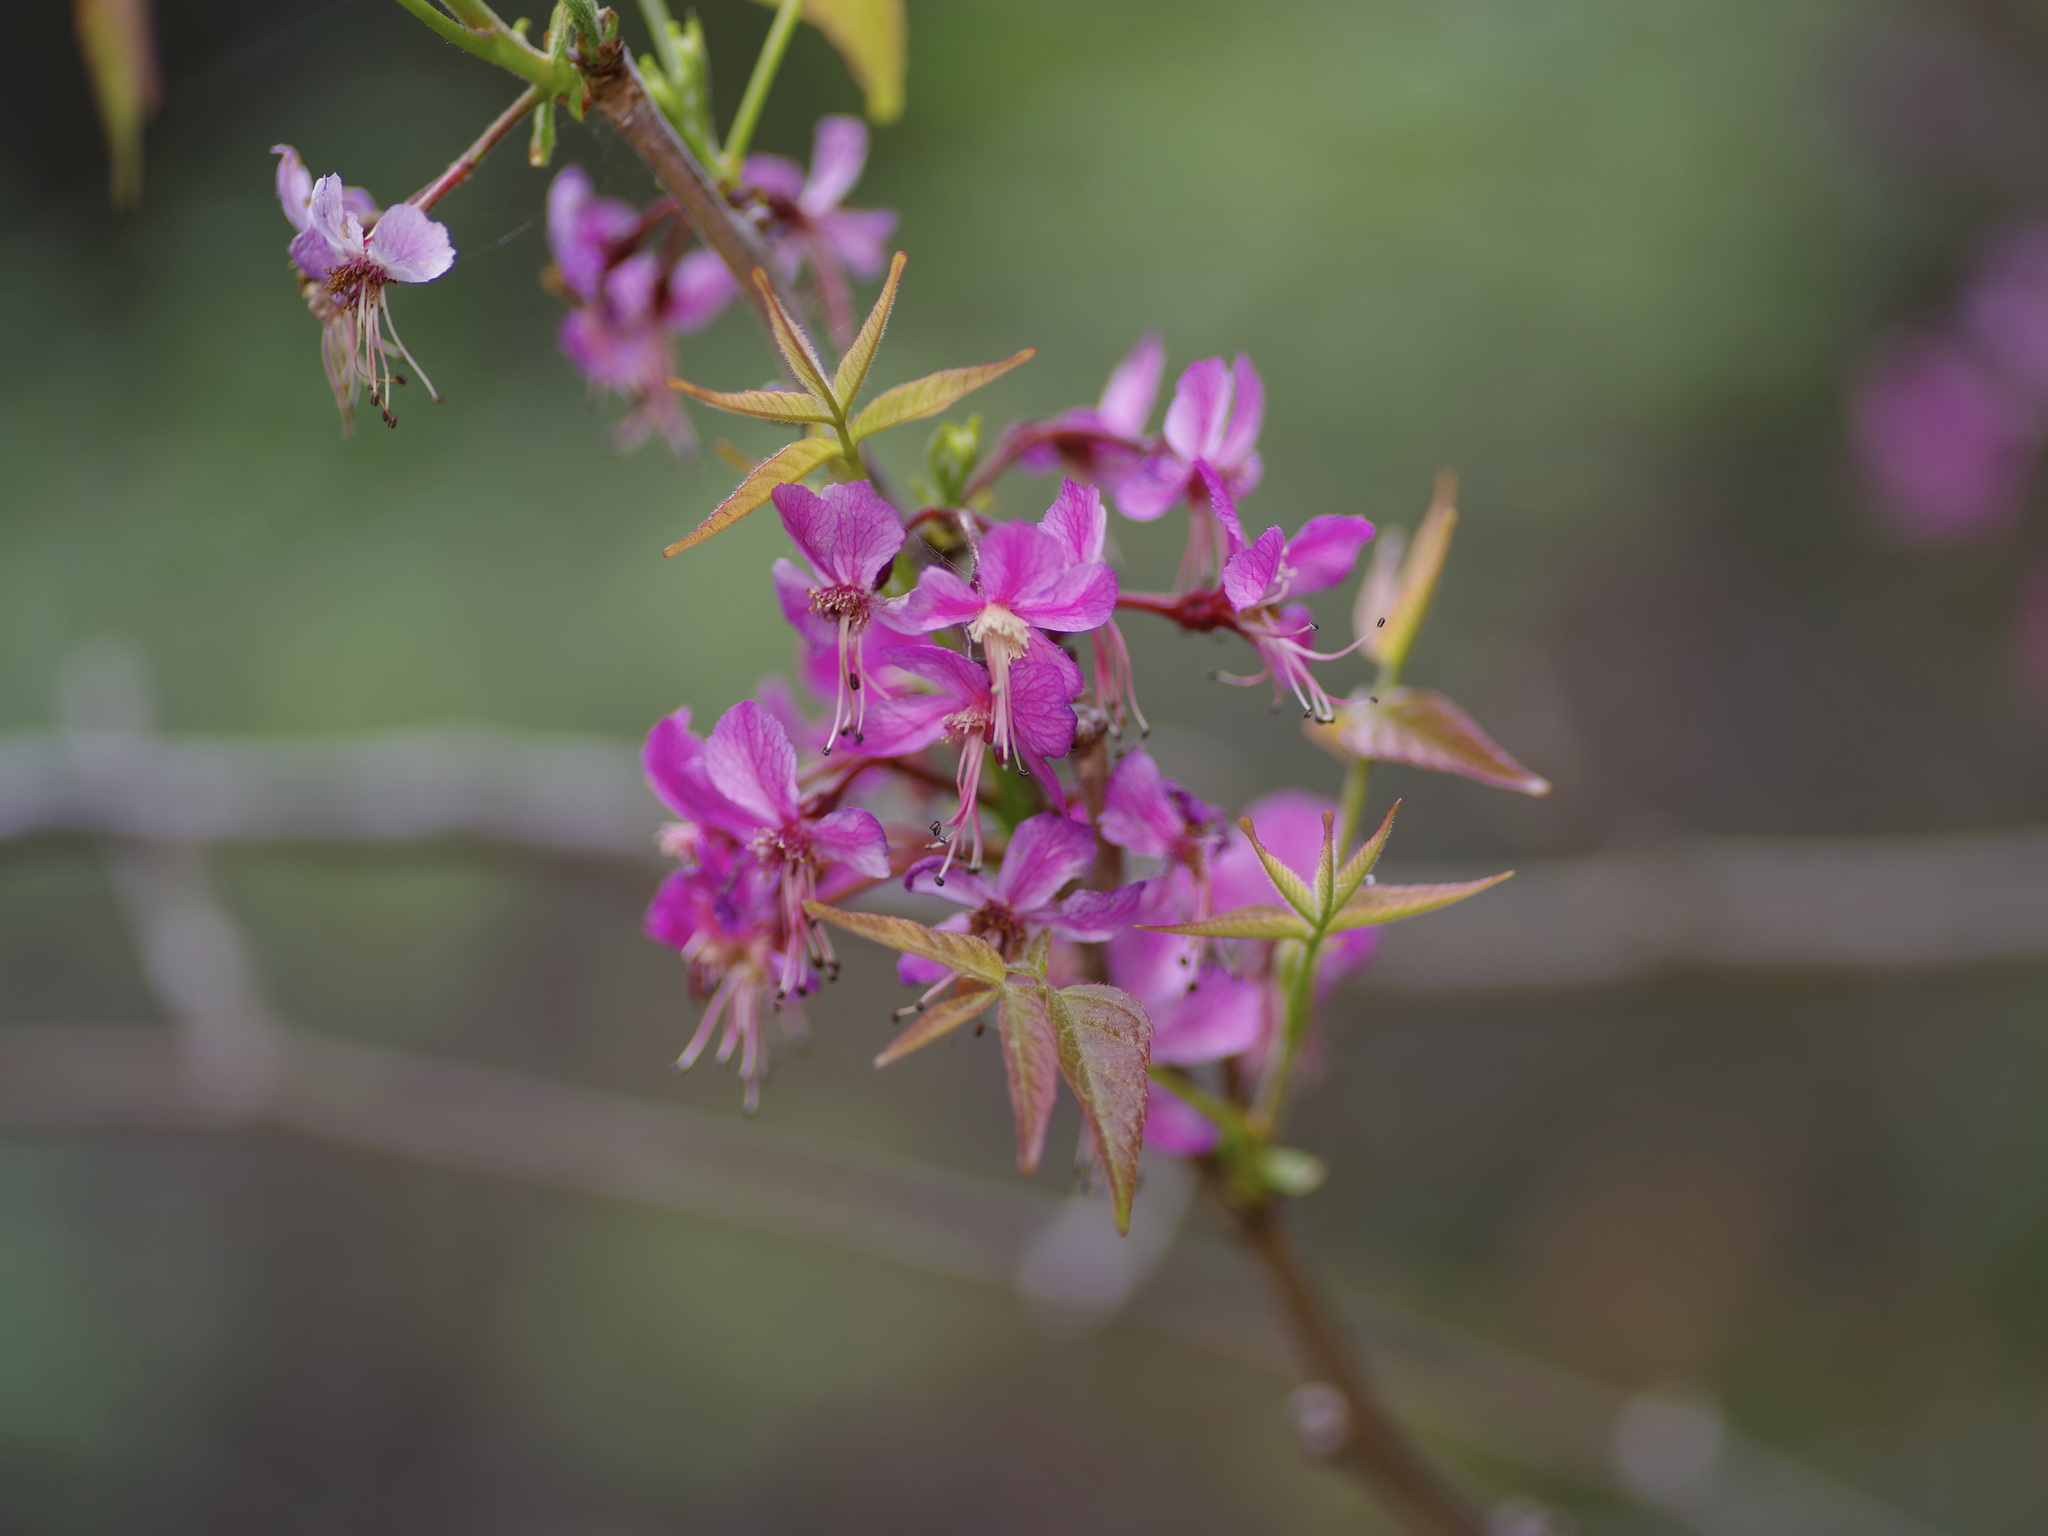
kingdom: Plantae
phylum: Tracheophyta
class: Magnoliopsida
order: Sapindales
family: Sapindaceae
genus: Ungnadia
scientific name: Ungnadia speciosa
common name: Texas-buckeye
